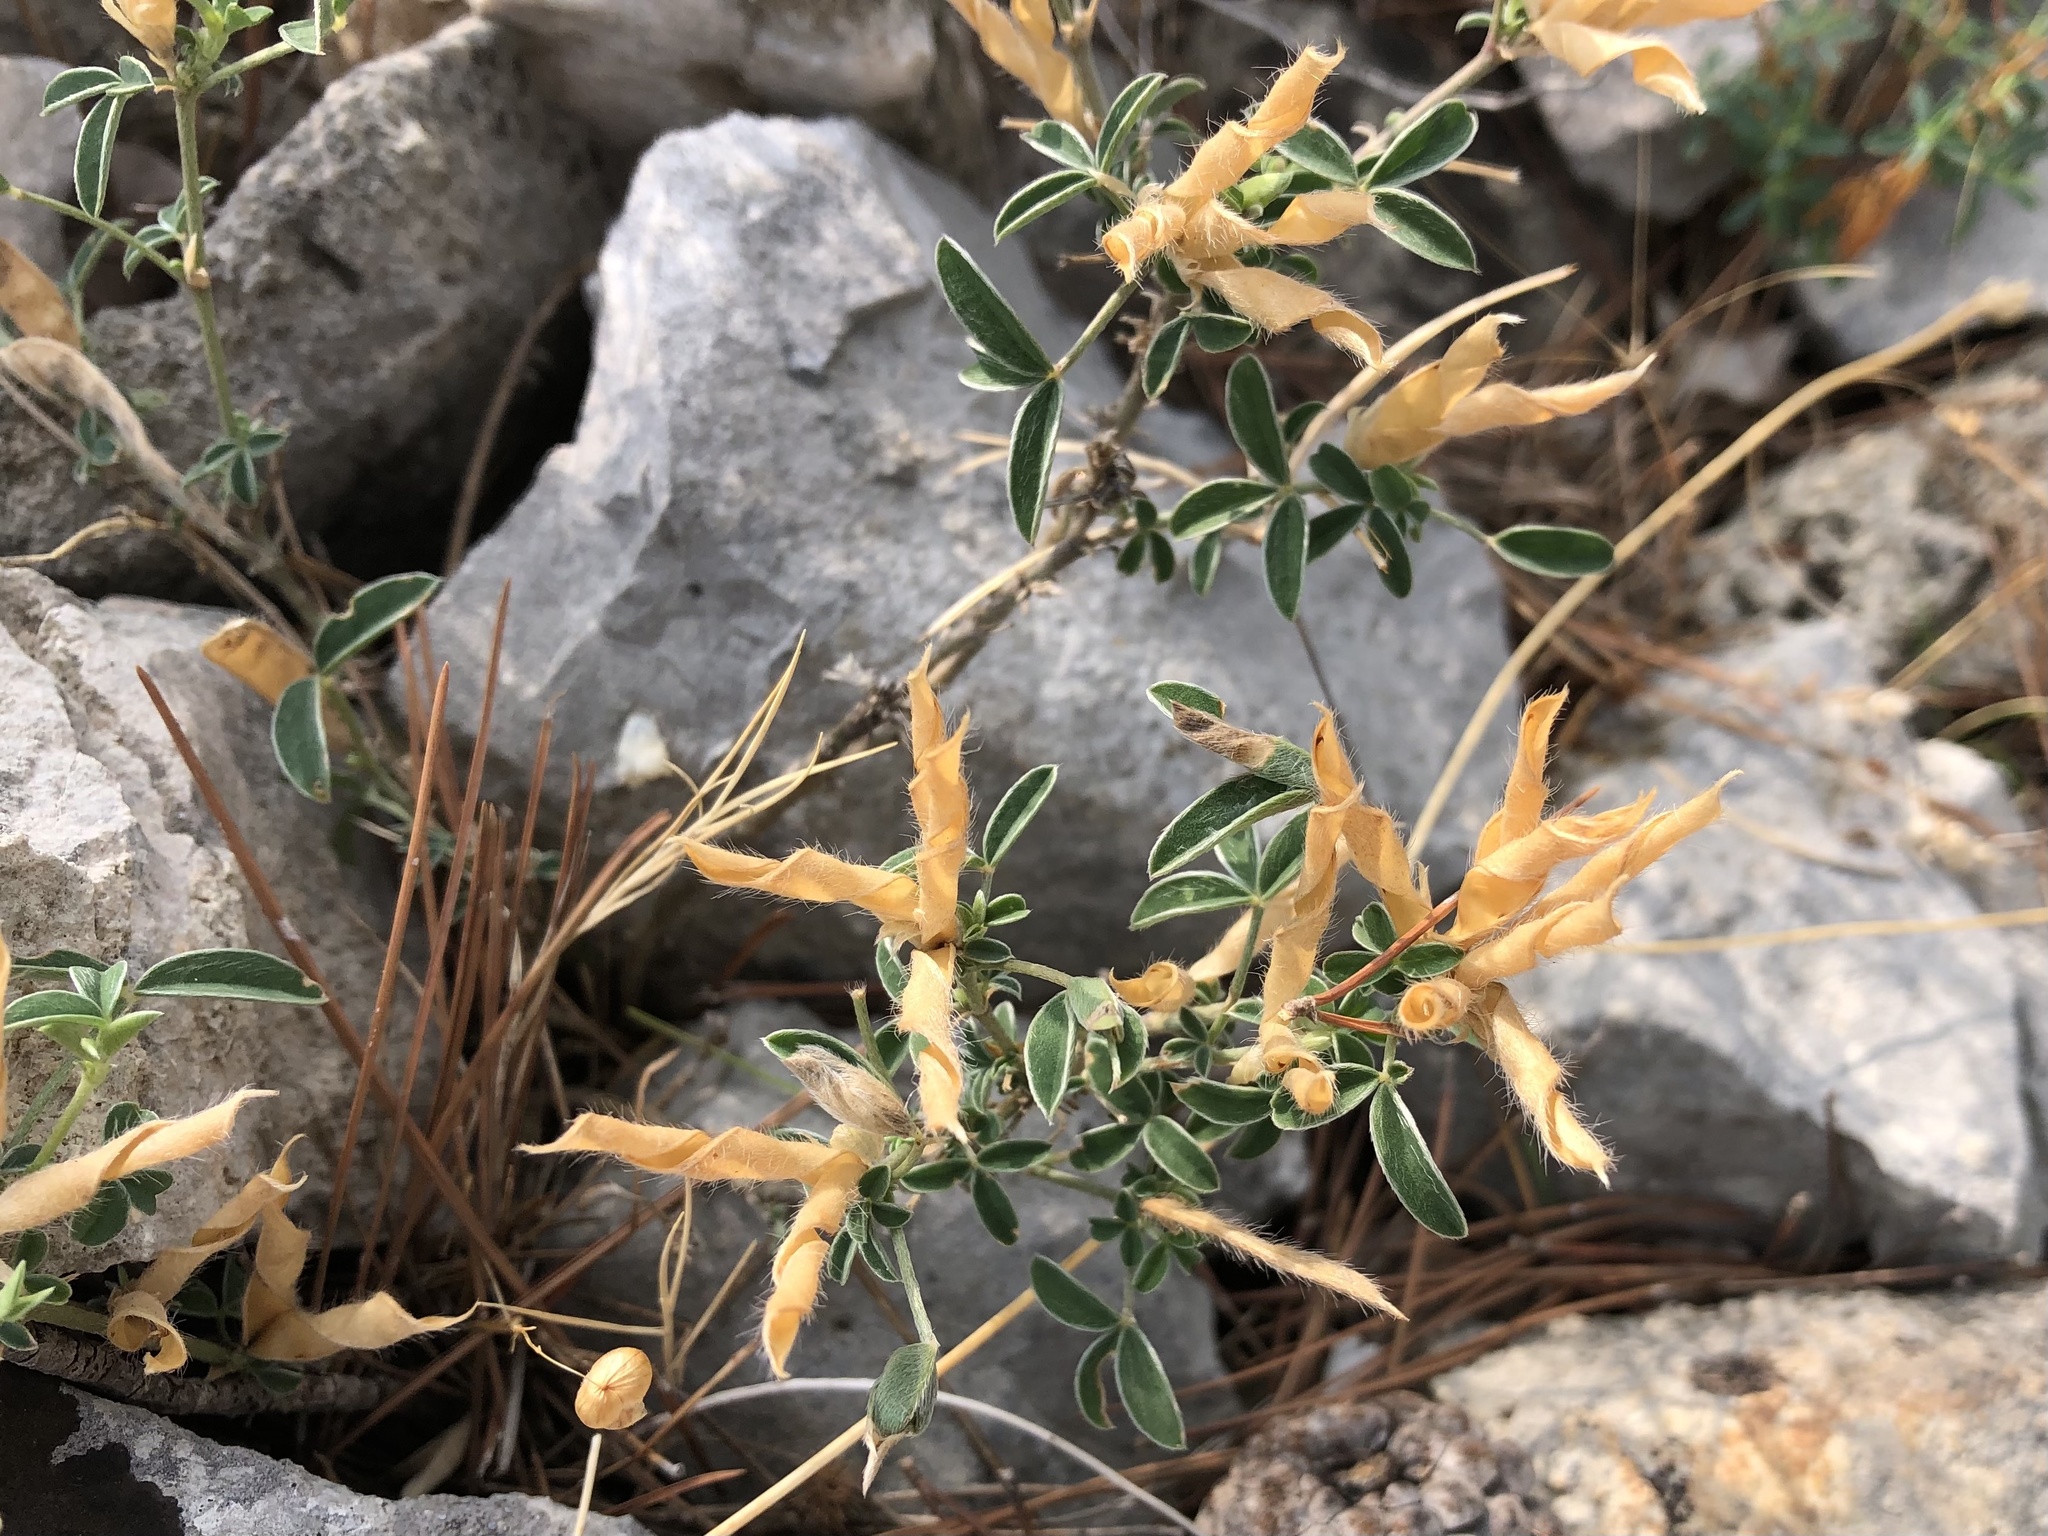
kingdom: Plantae
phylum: Tracheophyta
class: Magnoliopsida
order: Fabales
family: Fabaceae
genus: Argyrolobium
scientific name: Argyrolobium zanonii
